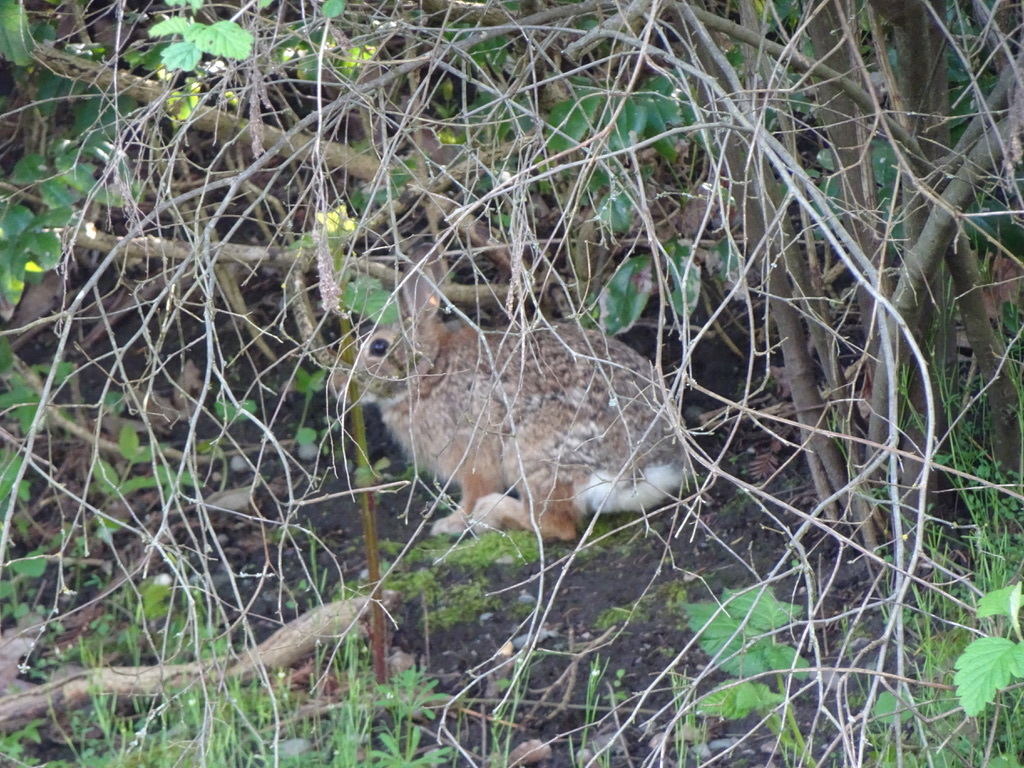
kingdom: Animalia
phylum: Chordata
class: Mammalia
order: Lagomorpha
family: Leporidae
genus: Sylvilagus
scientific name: Sylvilagus floridanus
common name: Eastern cottontail
